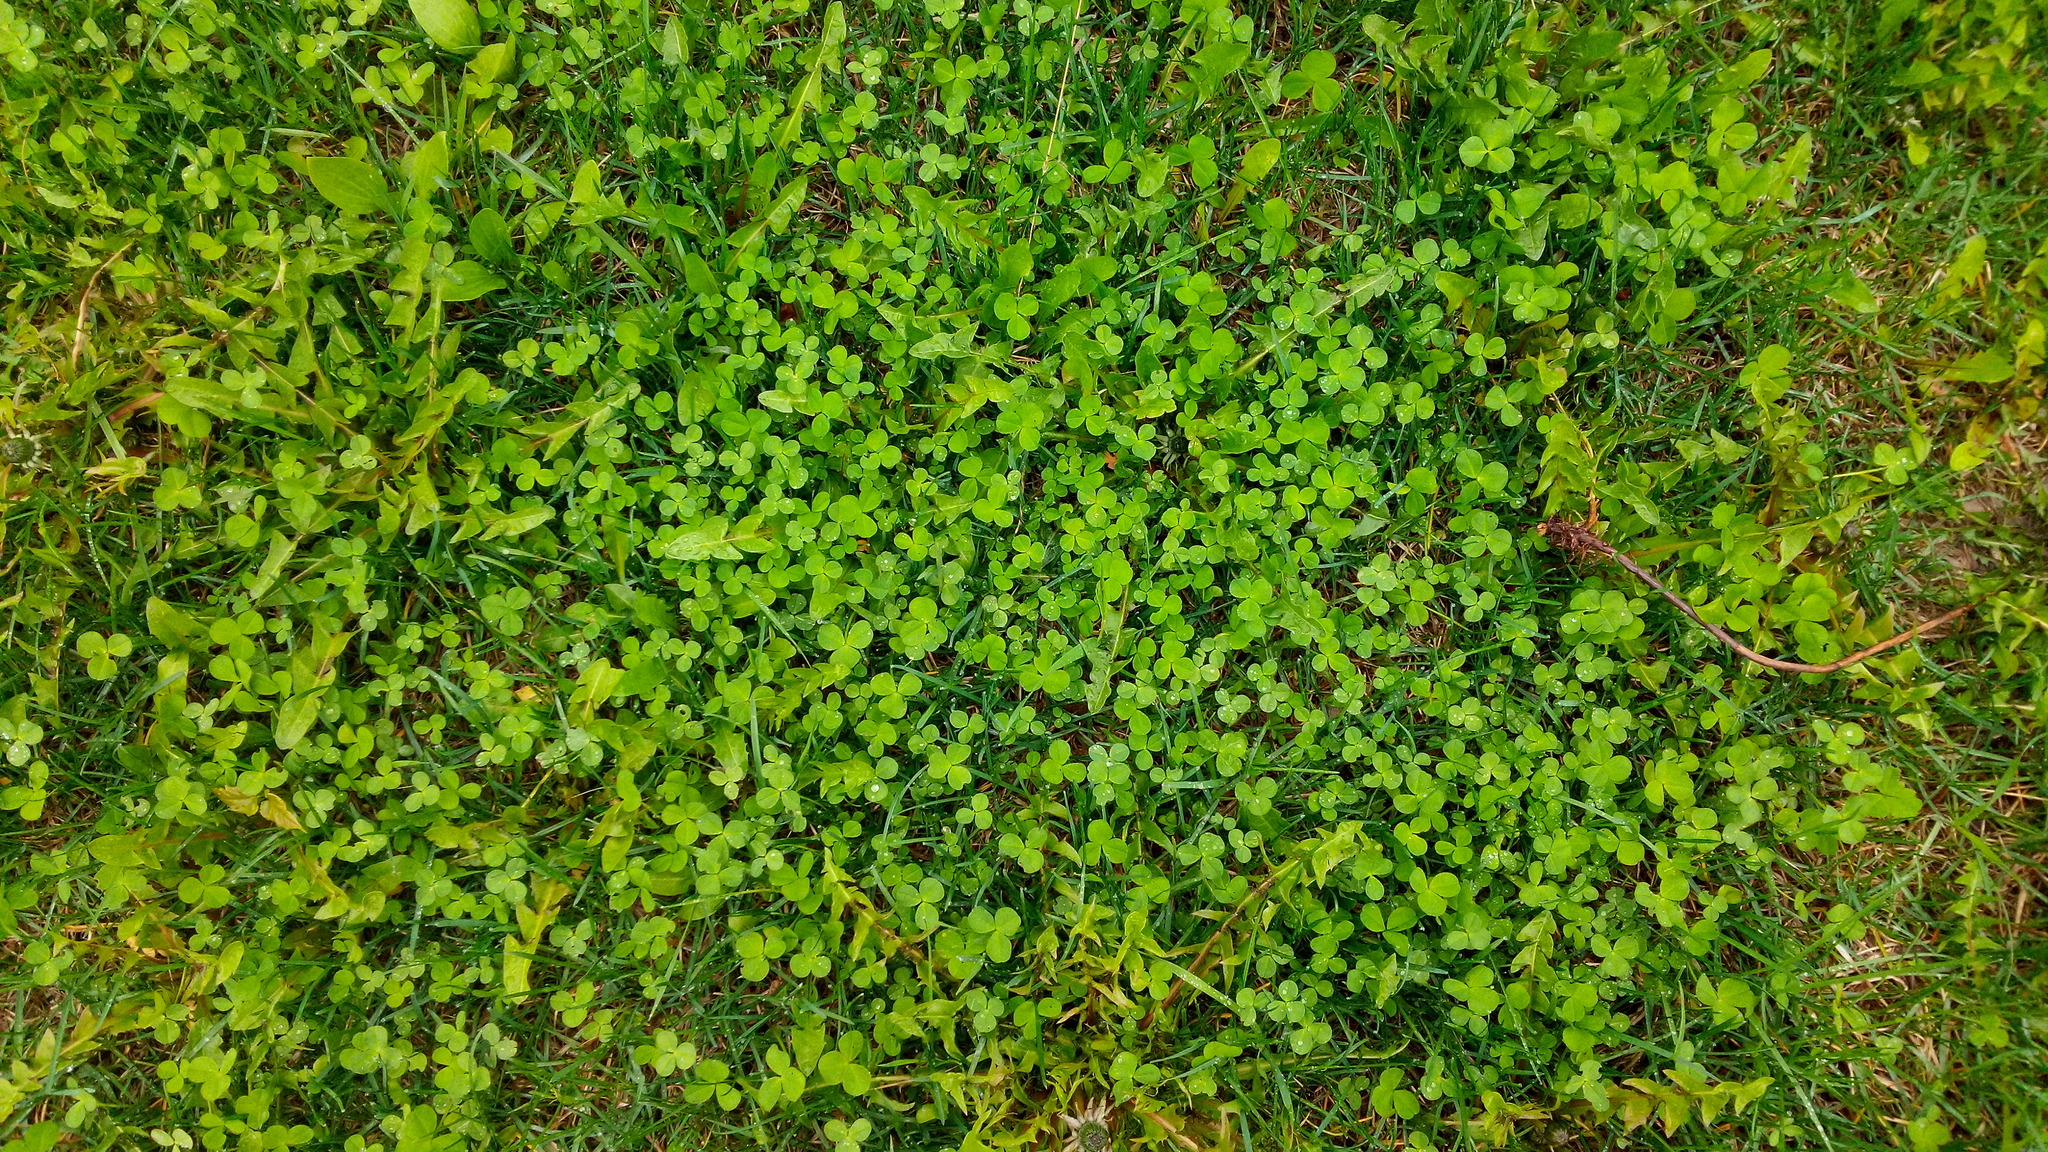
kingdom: Plantae
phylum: Tracheophyta
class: Magnoliopsida
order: Fabales
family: Fabaceae
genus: Trifolium
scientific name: Trifolium repens
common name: White clover
